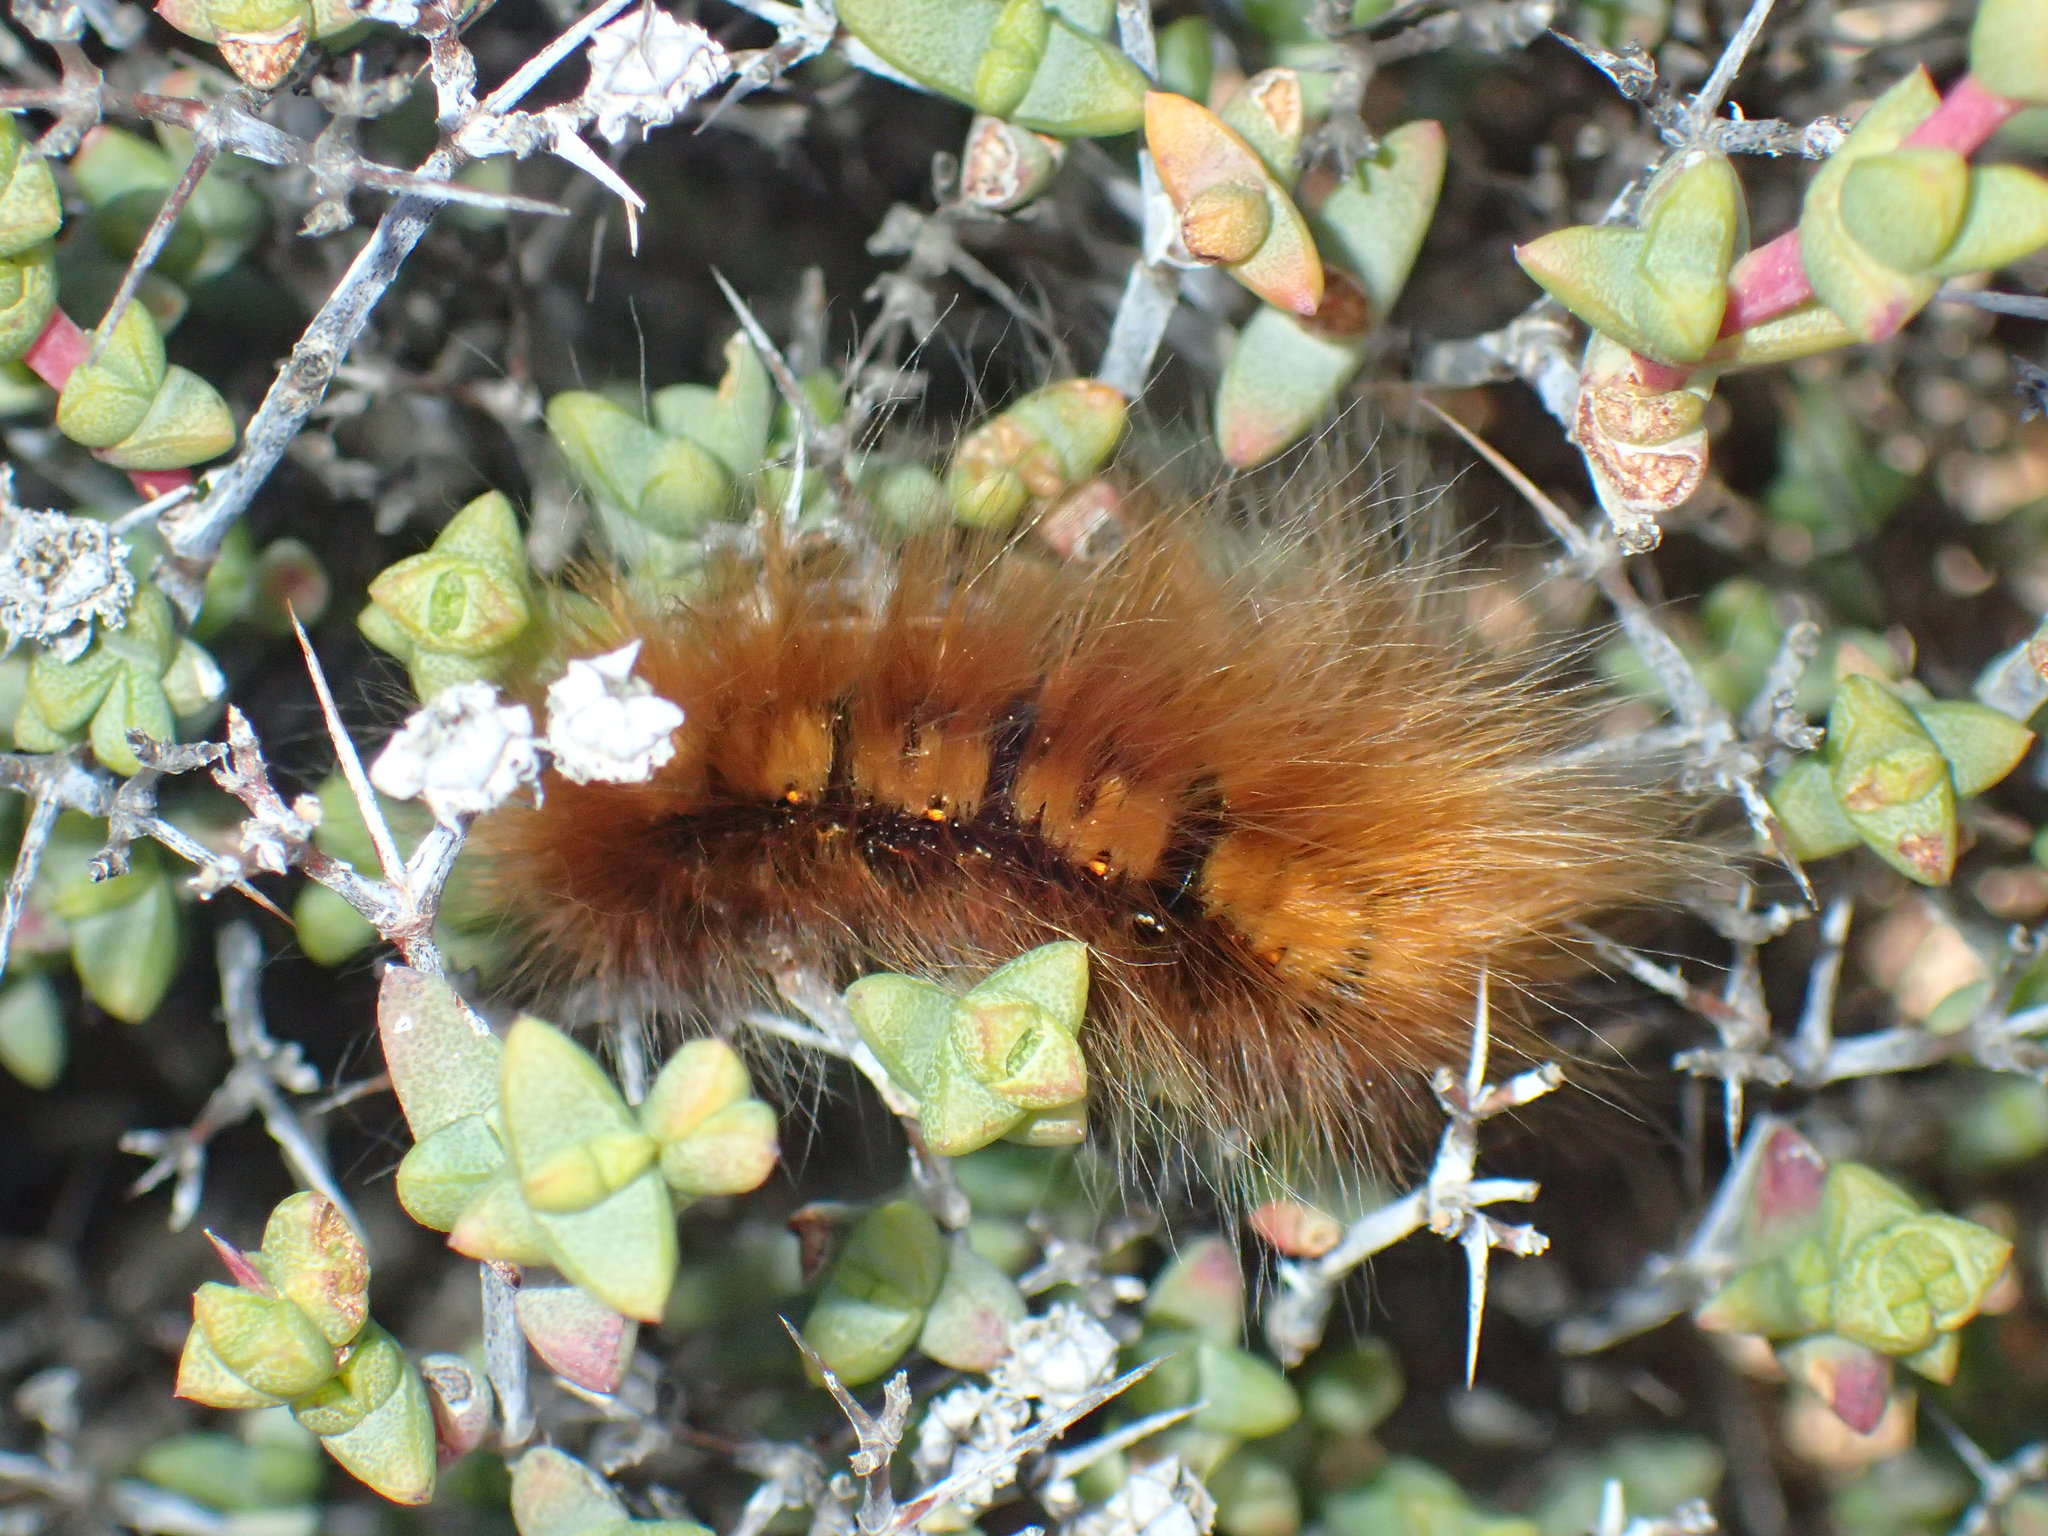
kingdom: Animalia
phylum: Arthropoda
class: Insecta
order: Lepidoptera
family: Lasiocampidae
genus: Mesocelis
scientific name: Mesocelis monticola
